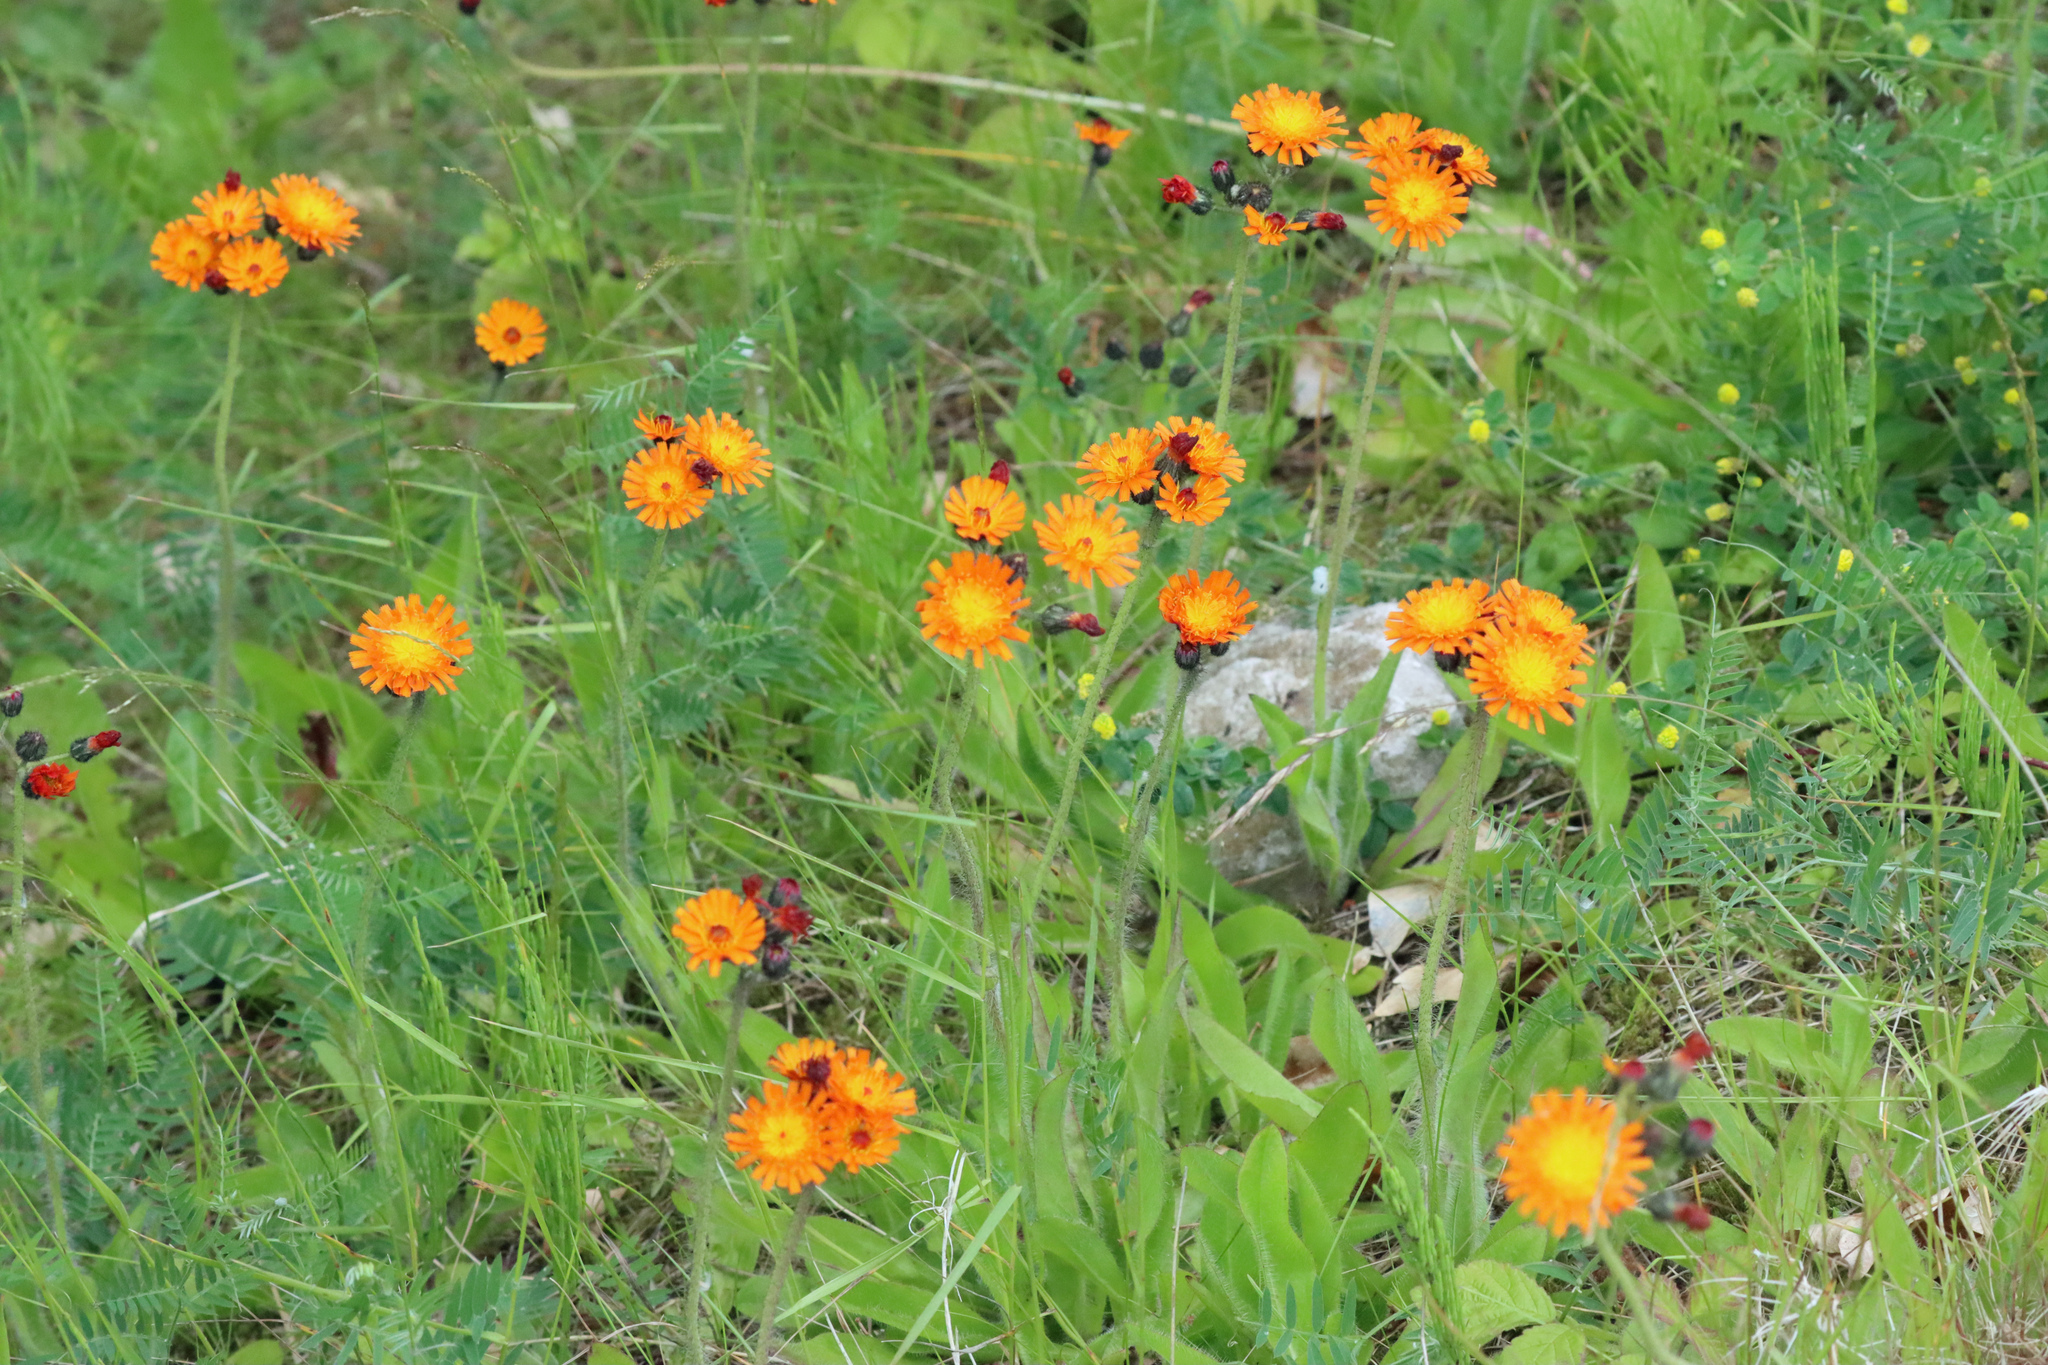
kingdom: Plantae
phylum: Tracheophyta
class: Magnoliopsida
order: Asterales
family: Asteraceae
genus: Pilosella
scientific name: Pilosella aurantiaca
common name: Fox-and-cubs
